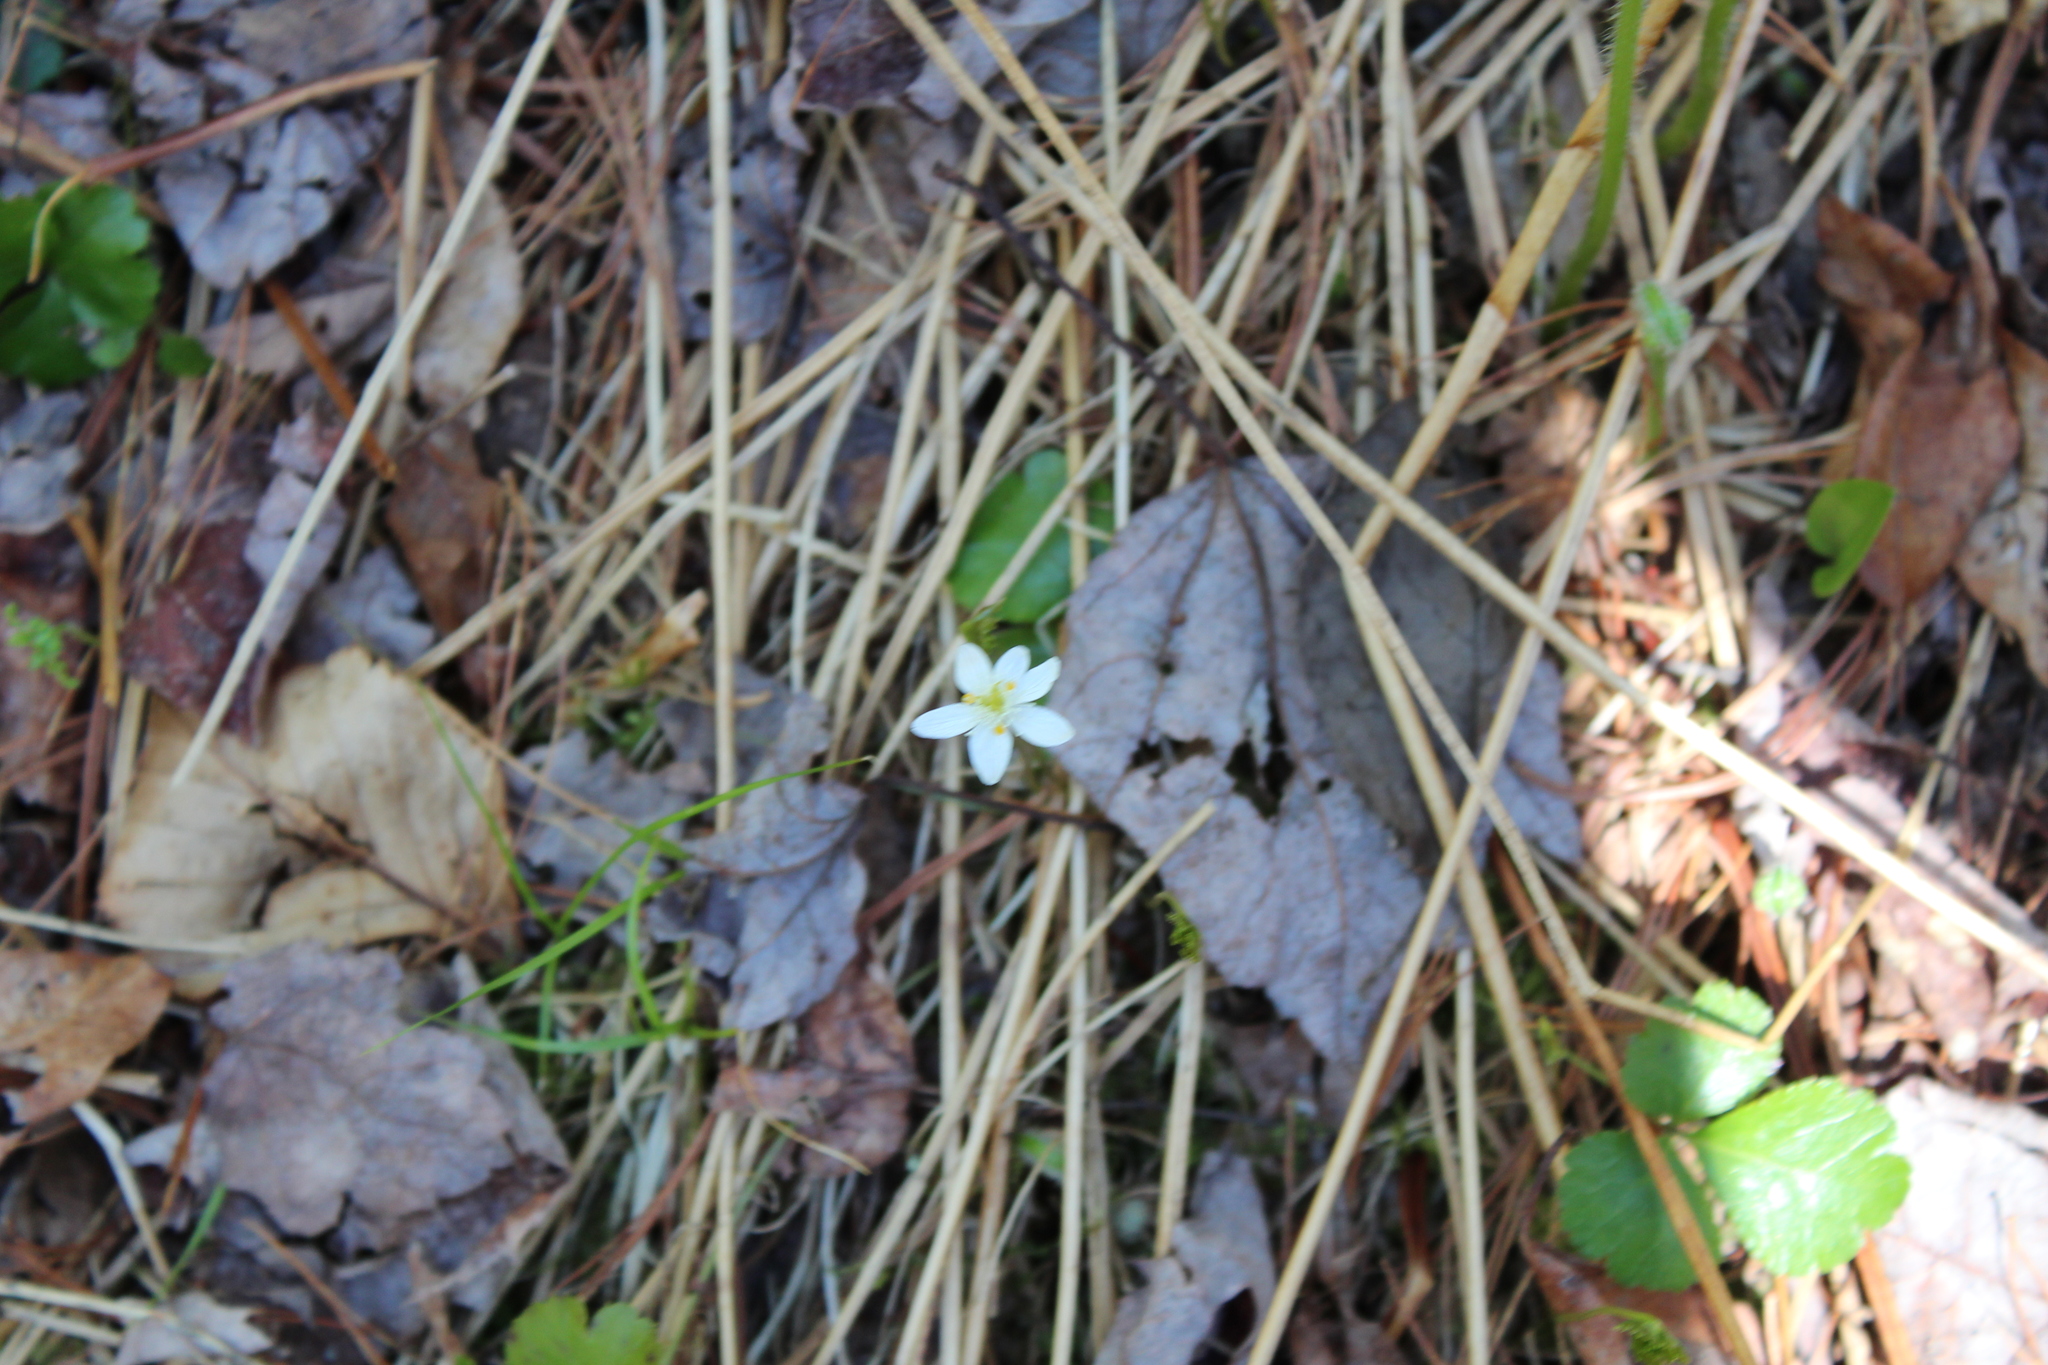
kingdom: Plantae
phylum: Tracheophyta
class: Magnoliopsida
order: Ranunculales
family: Ranunculaceae
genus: Coptis
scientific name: Coptis trifolia
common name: Canker-root
